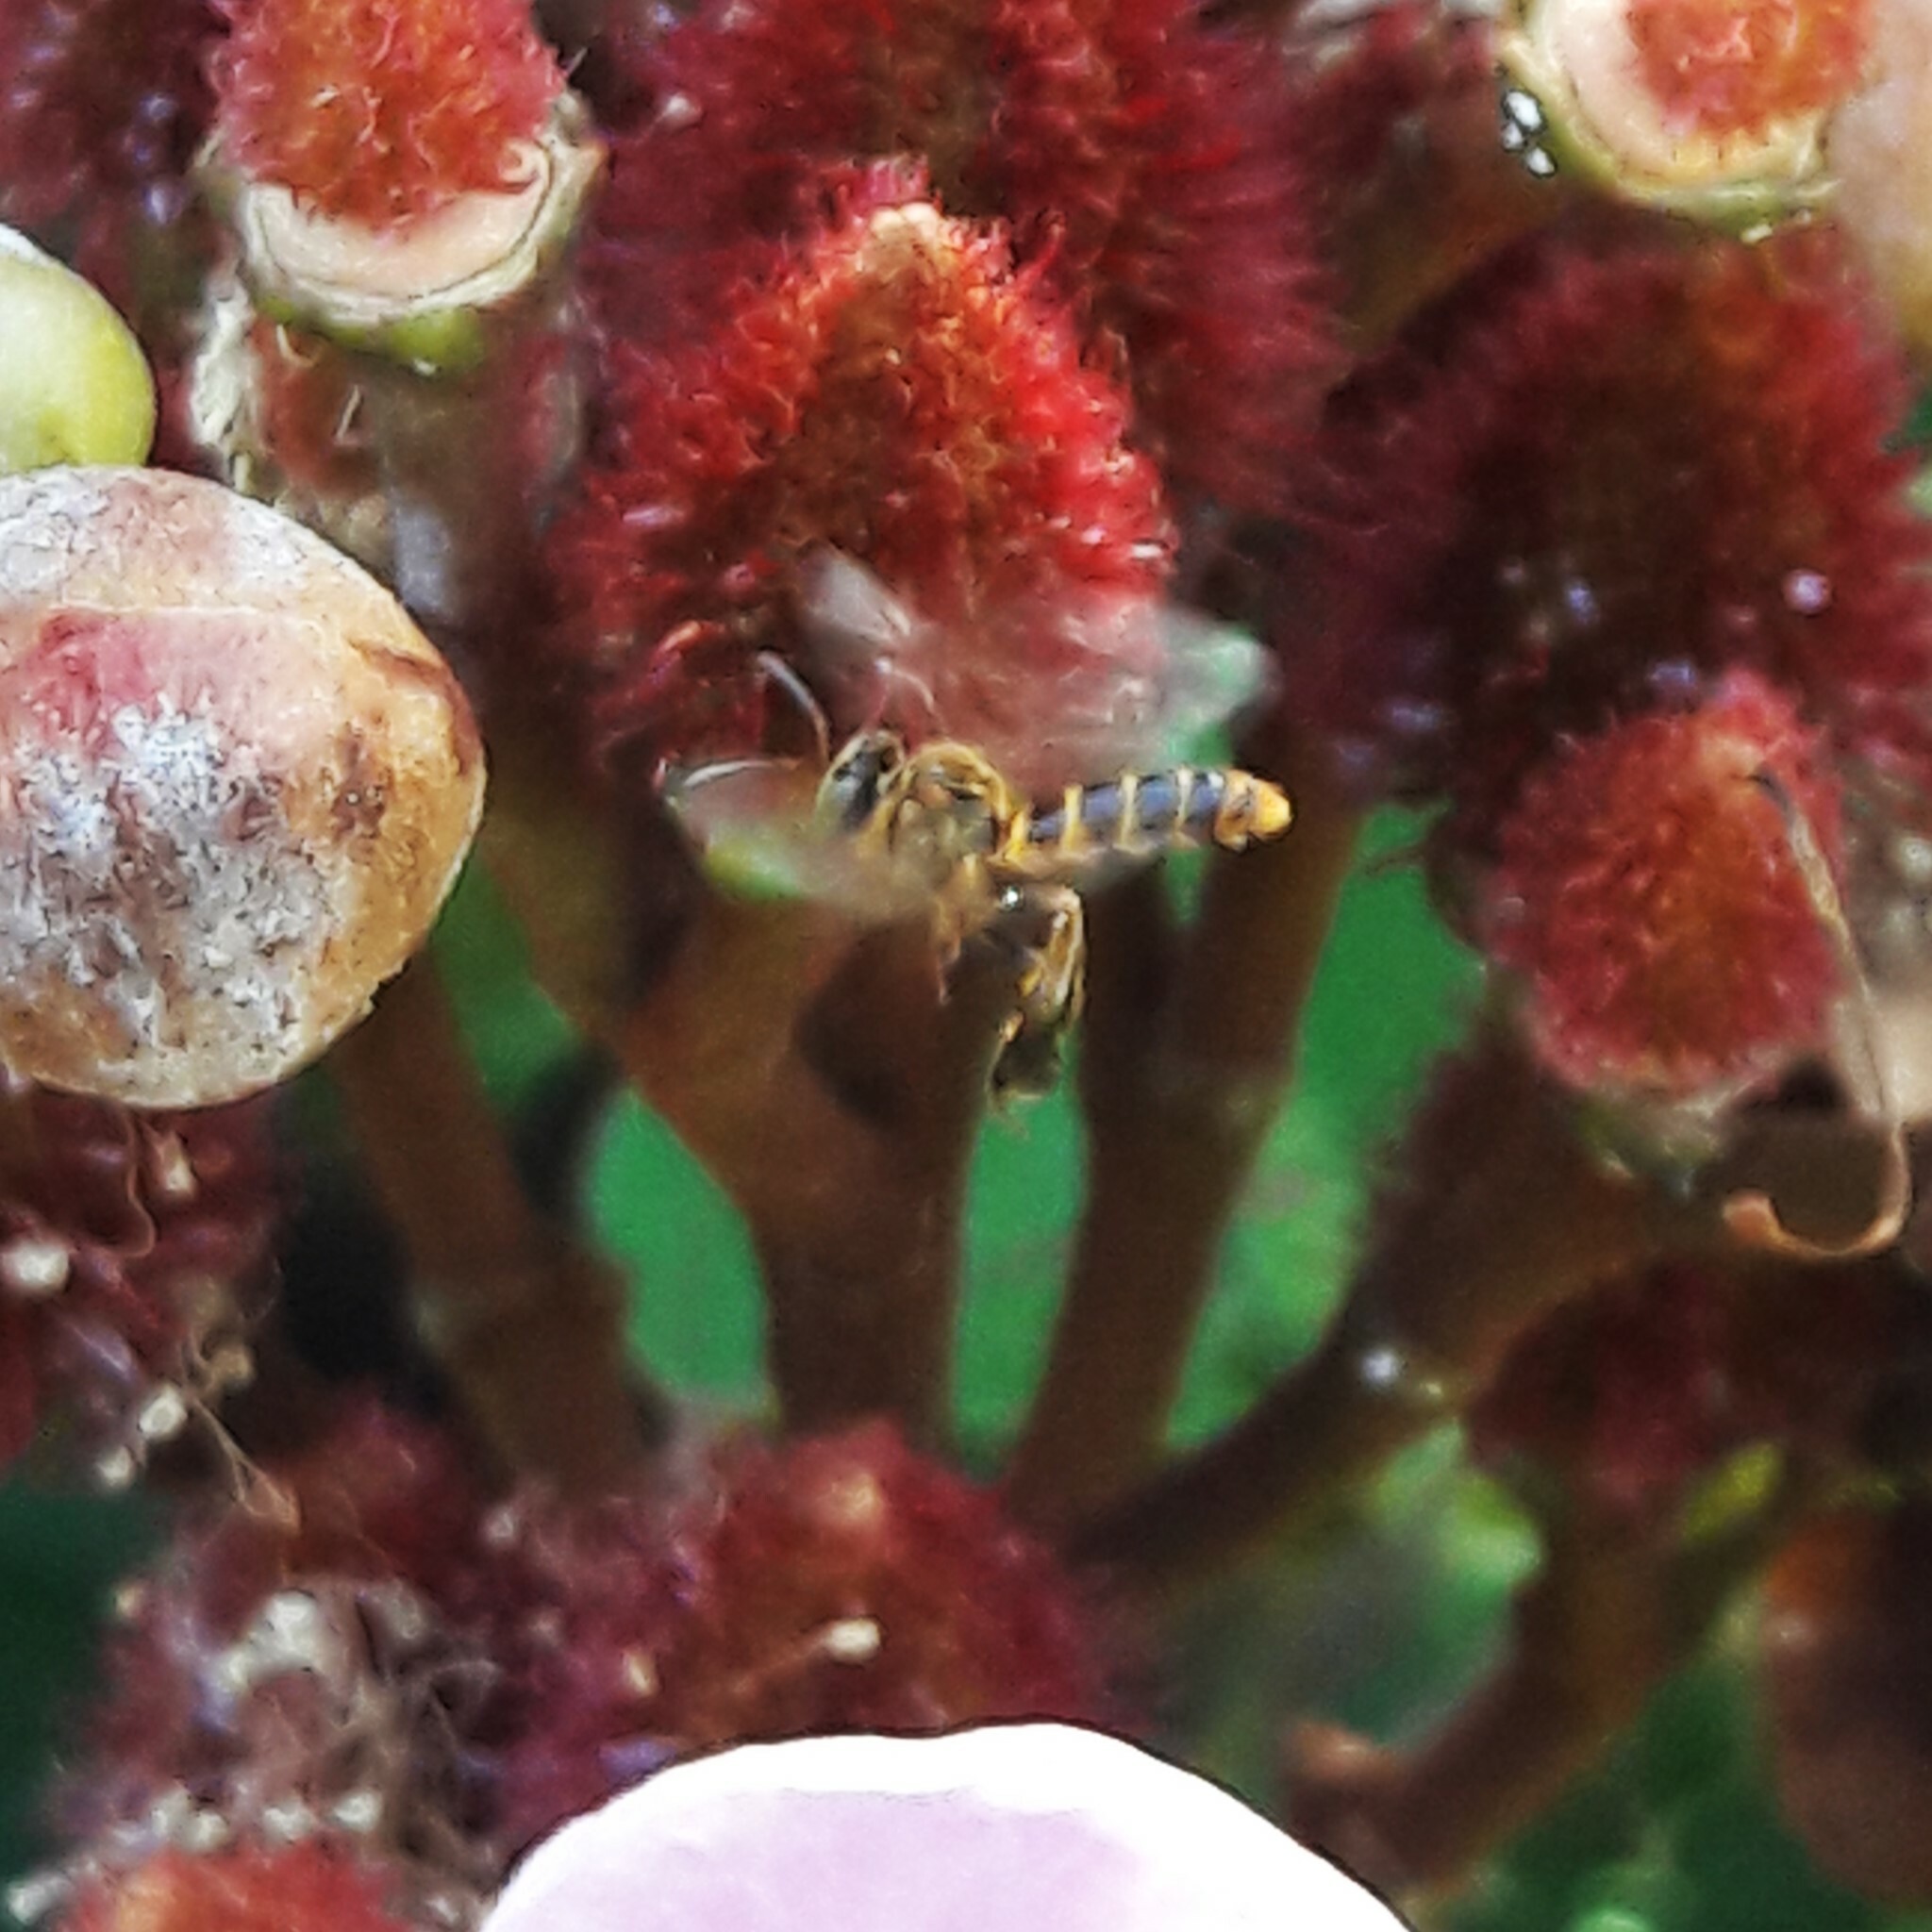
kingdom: Animalia
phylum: Arthropoda
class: Insecta
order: Hymenoptera
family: Apidae
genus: Tetragona
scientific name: Tetragona clavipes
